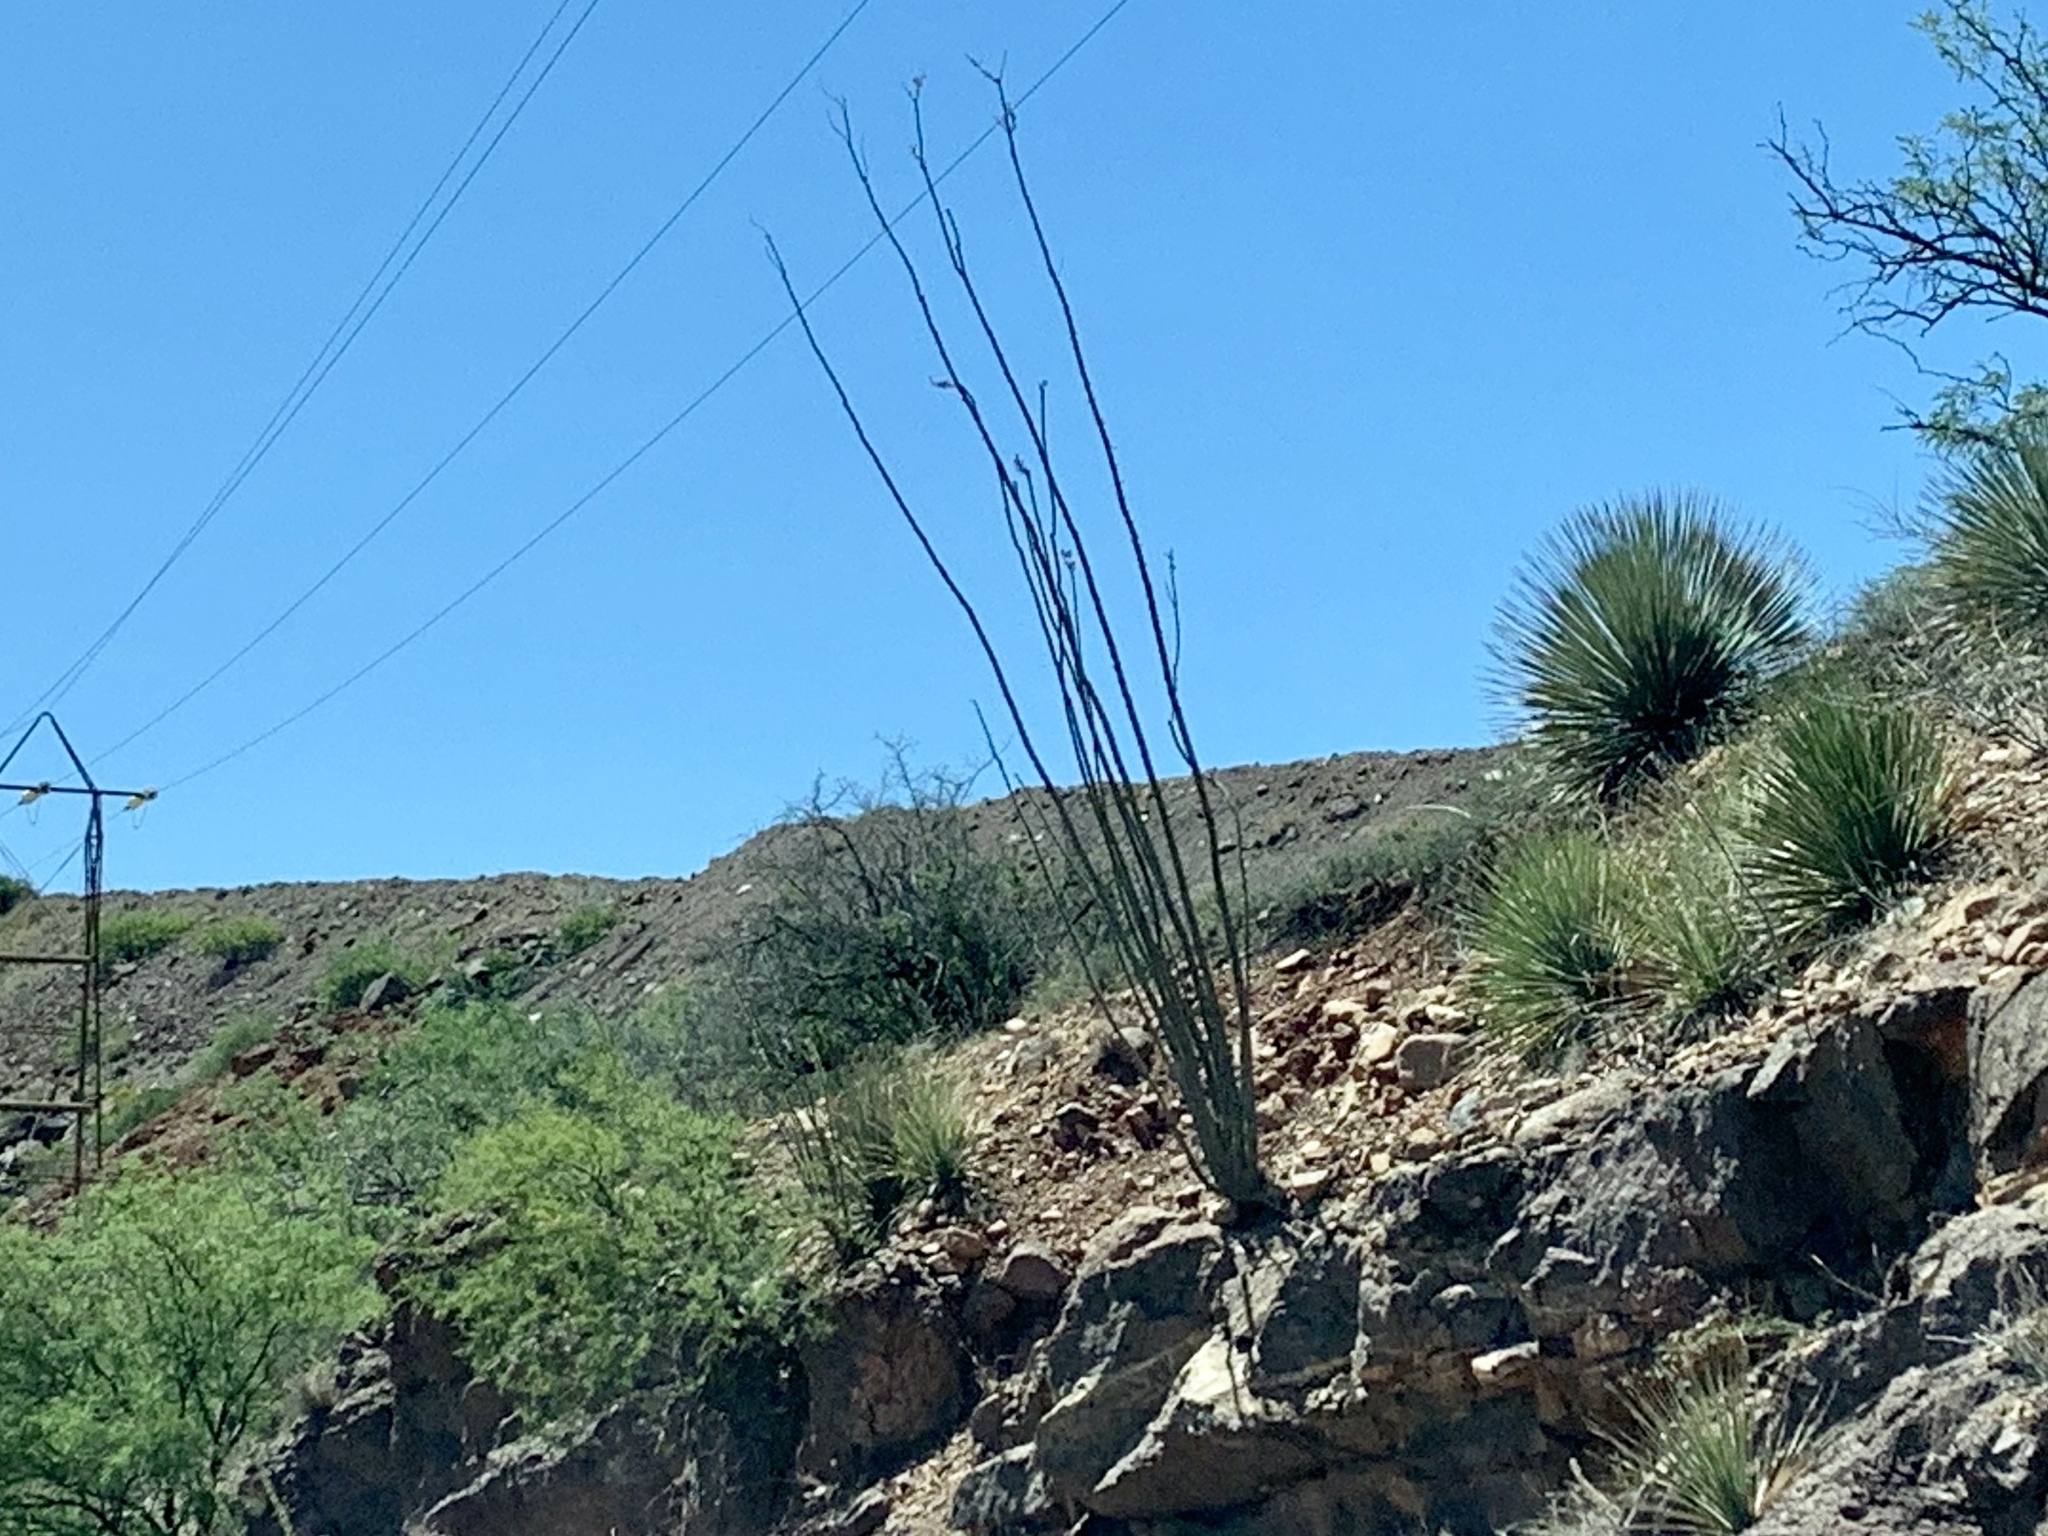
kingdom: Plantae
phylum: Tracheophyta
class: Magnoliopsida
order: Ericales
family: Fouquieriaceae
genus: Fouquieria
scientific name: Fouquieria splendens
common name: Vine-cactus
